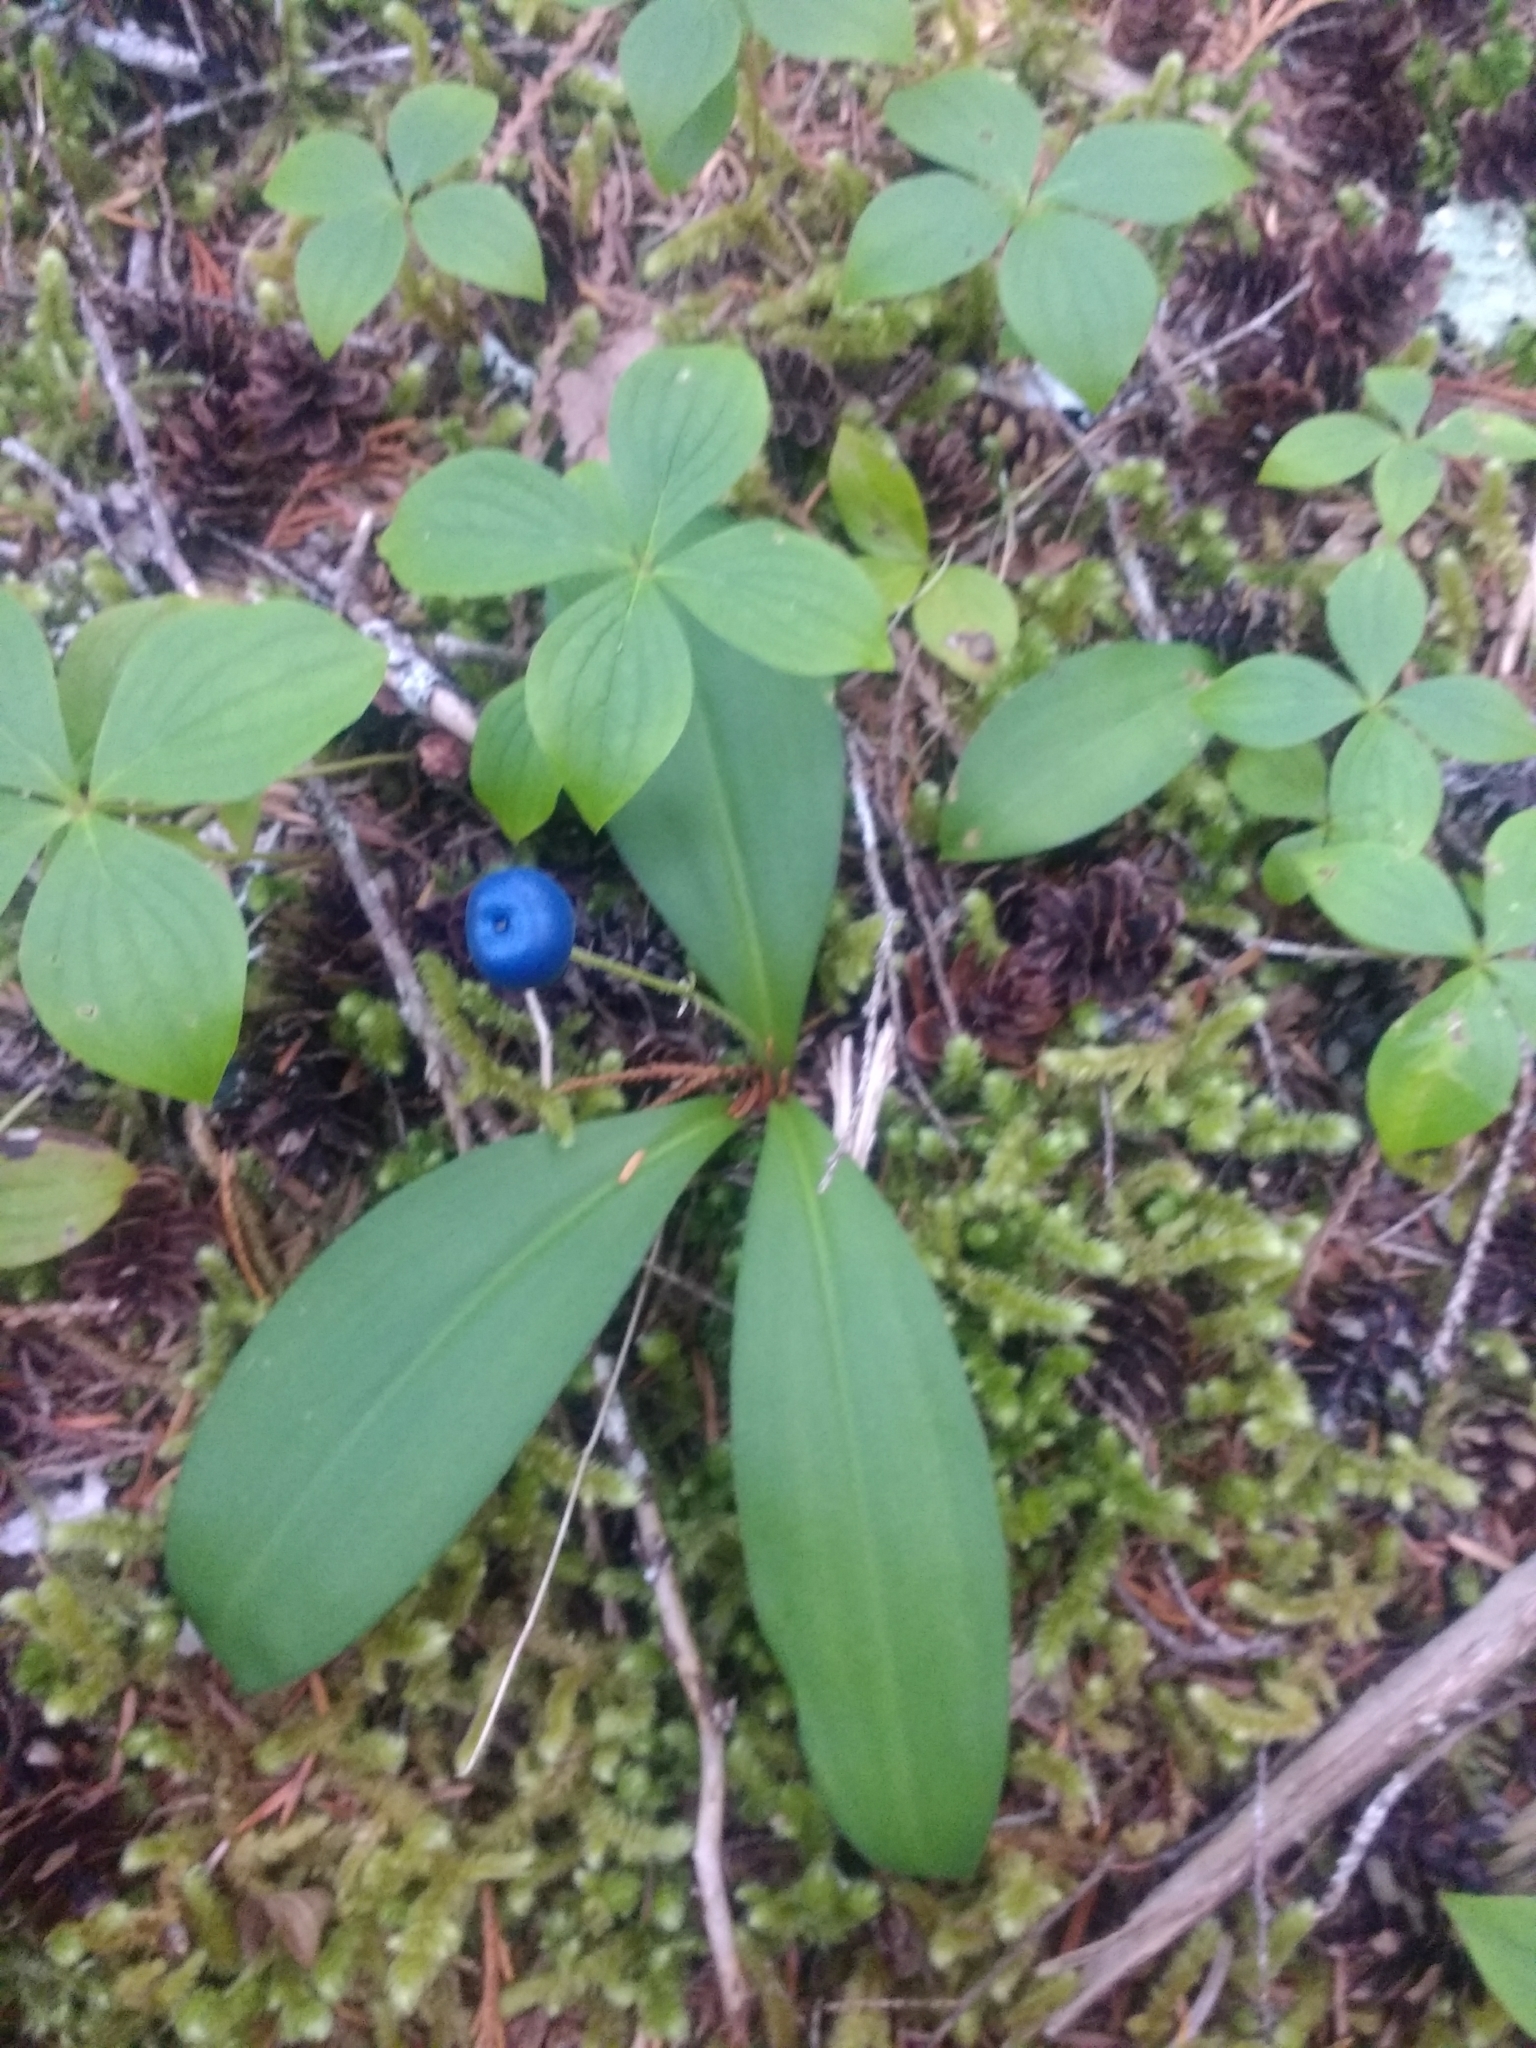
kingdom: Plantae
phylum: Tracheophyta
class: Liliopsida
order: Liliales
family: Liliaceae
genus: Clintonia
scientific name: Clintonia uniflora
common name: Queen's cup
